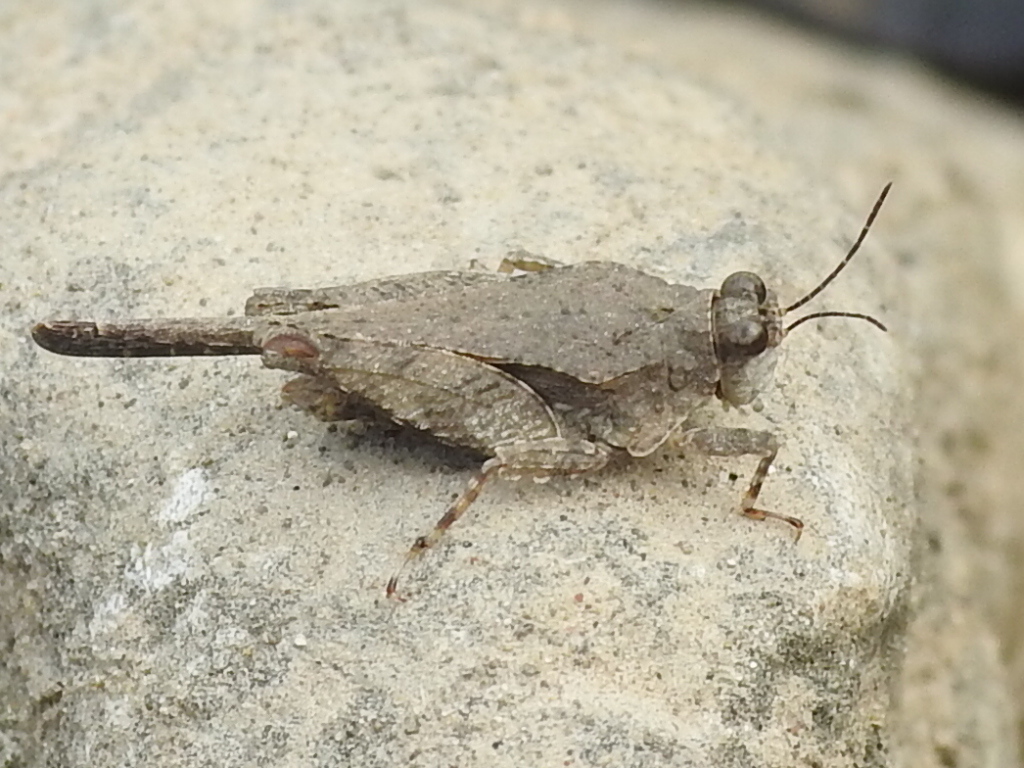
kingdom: Animalia
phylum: Arthropoda
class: Insecta
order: Orthoptera
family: Tetrigidae
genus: Paratettix
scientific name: Paratettix mexicanus
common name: Mexican pygmy grasshopper
